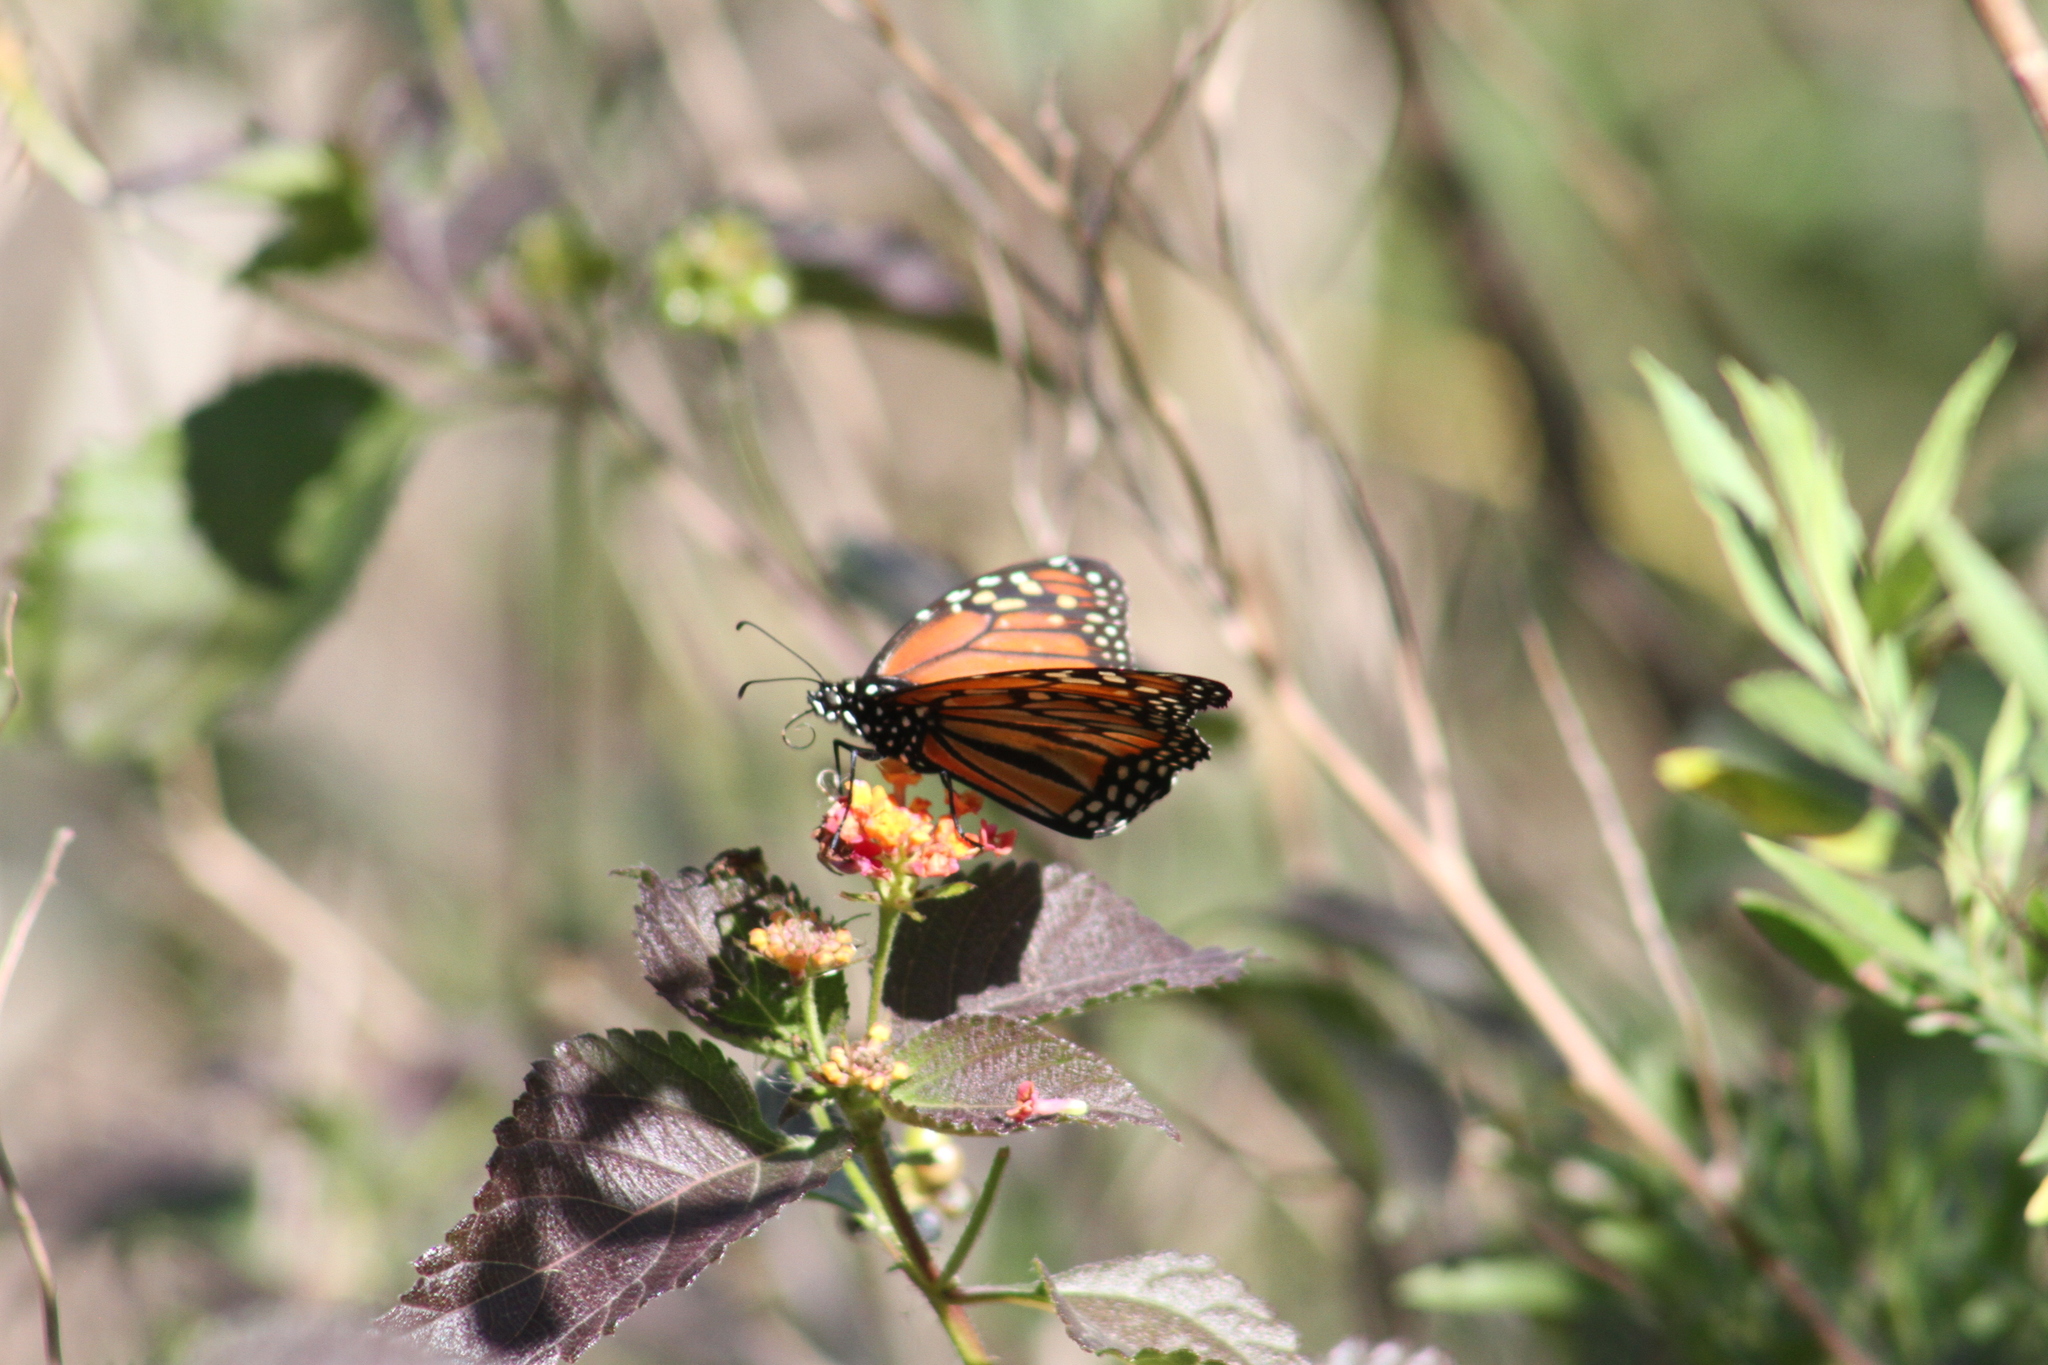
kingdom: Animalia
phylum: Arthropoda
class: Insecta
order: Lepidoptera
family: Nymphalidae
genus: Danaus
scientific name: Danaus erippus
